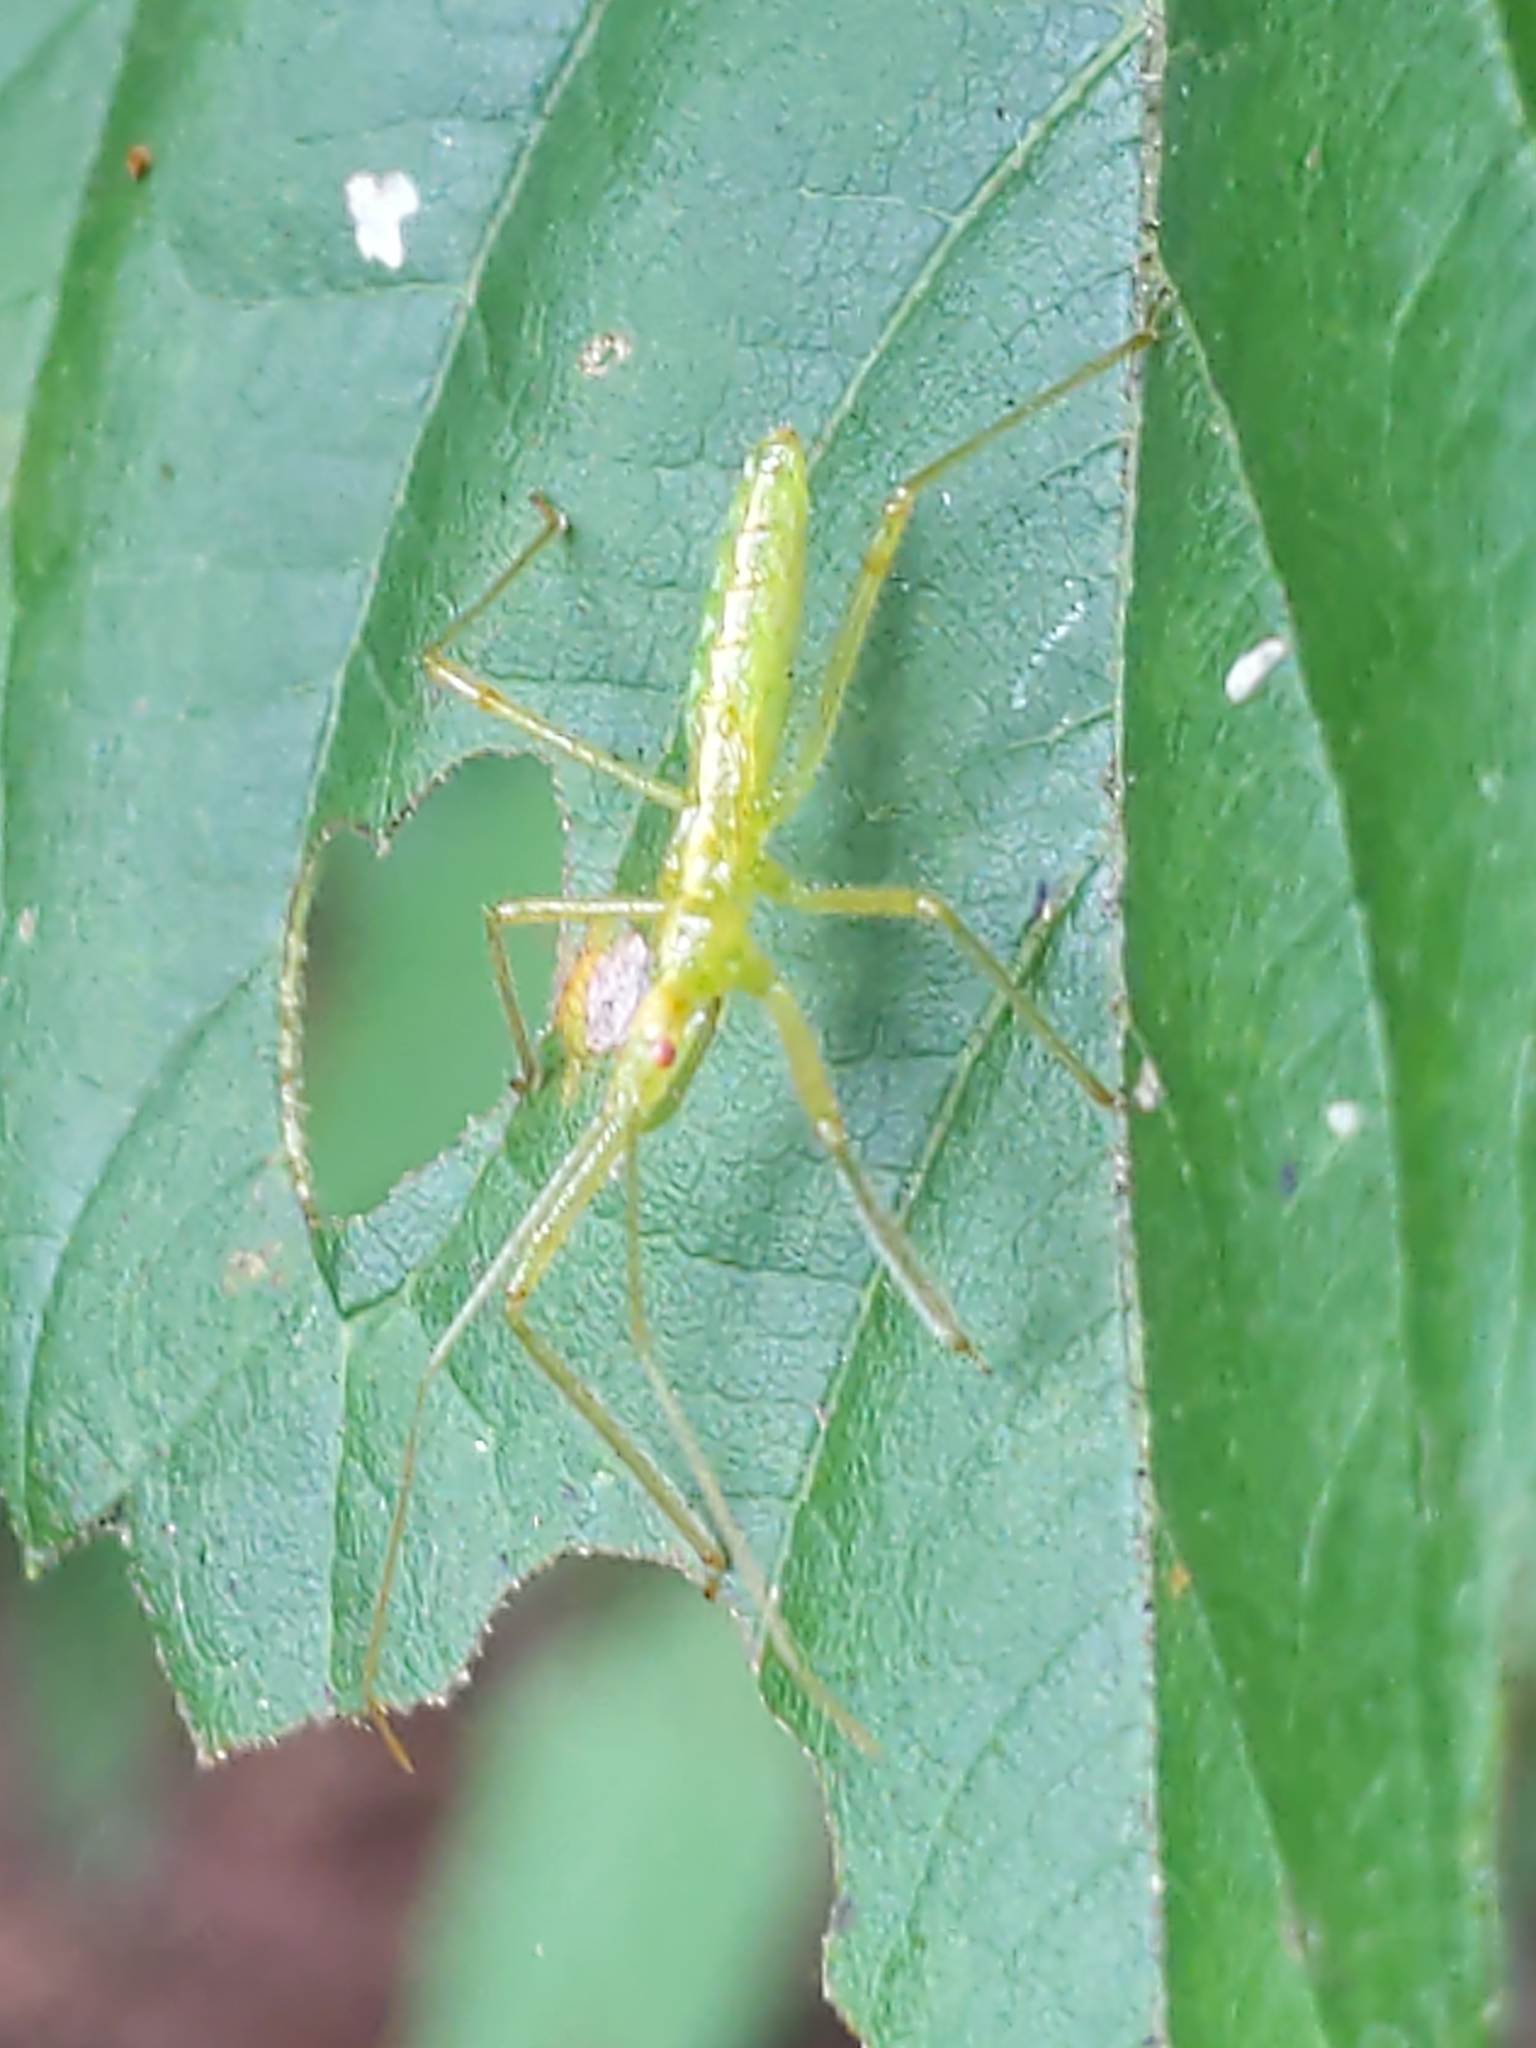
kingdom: Animalia
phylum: Arthropoda
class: Insecta
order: Hemiptera
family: Reduviidae
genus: Zelus
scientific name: Zelus luridus
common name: Pale green assassin bug
